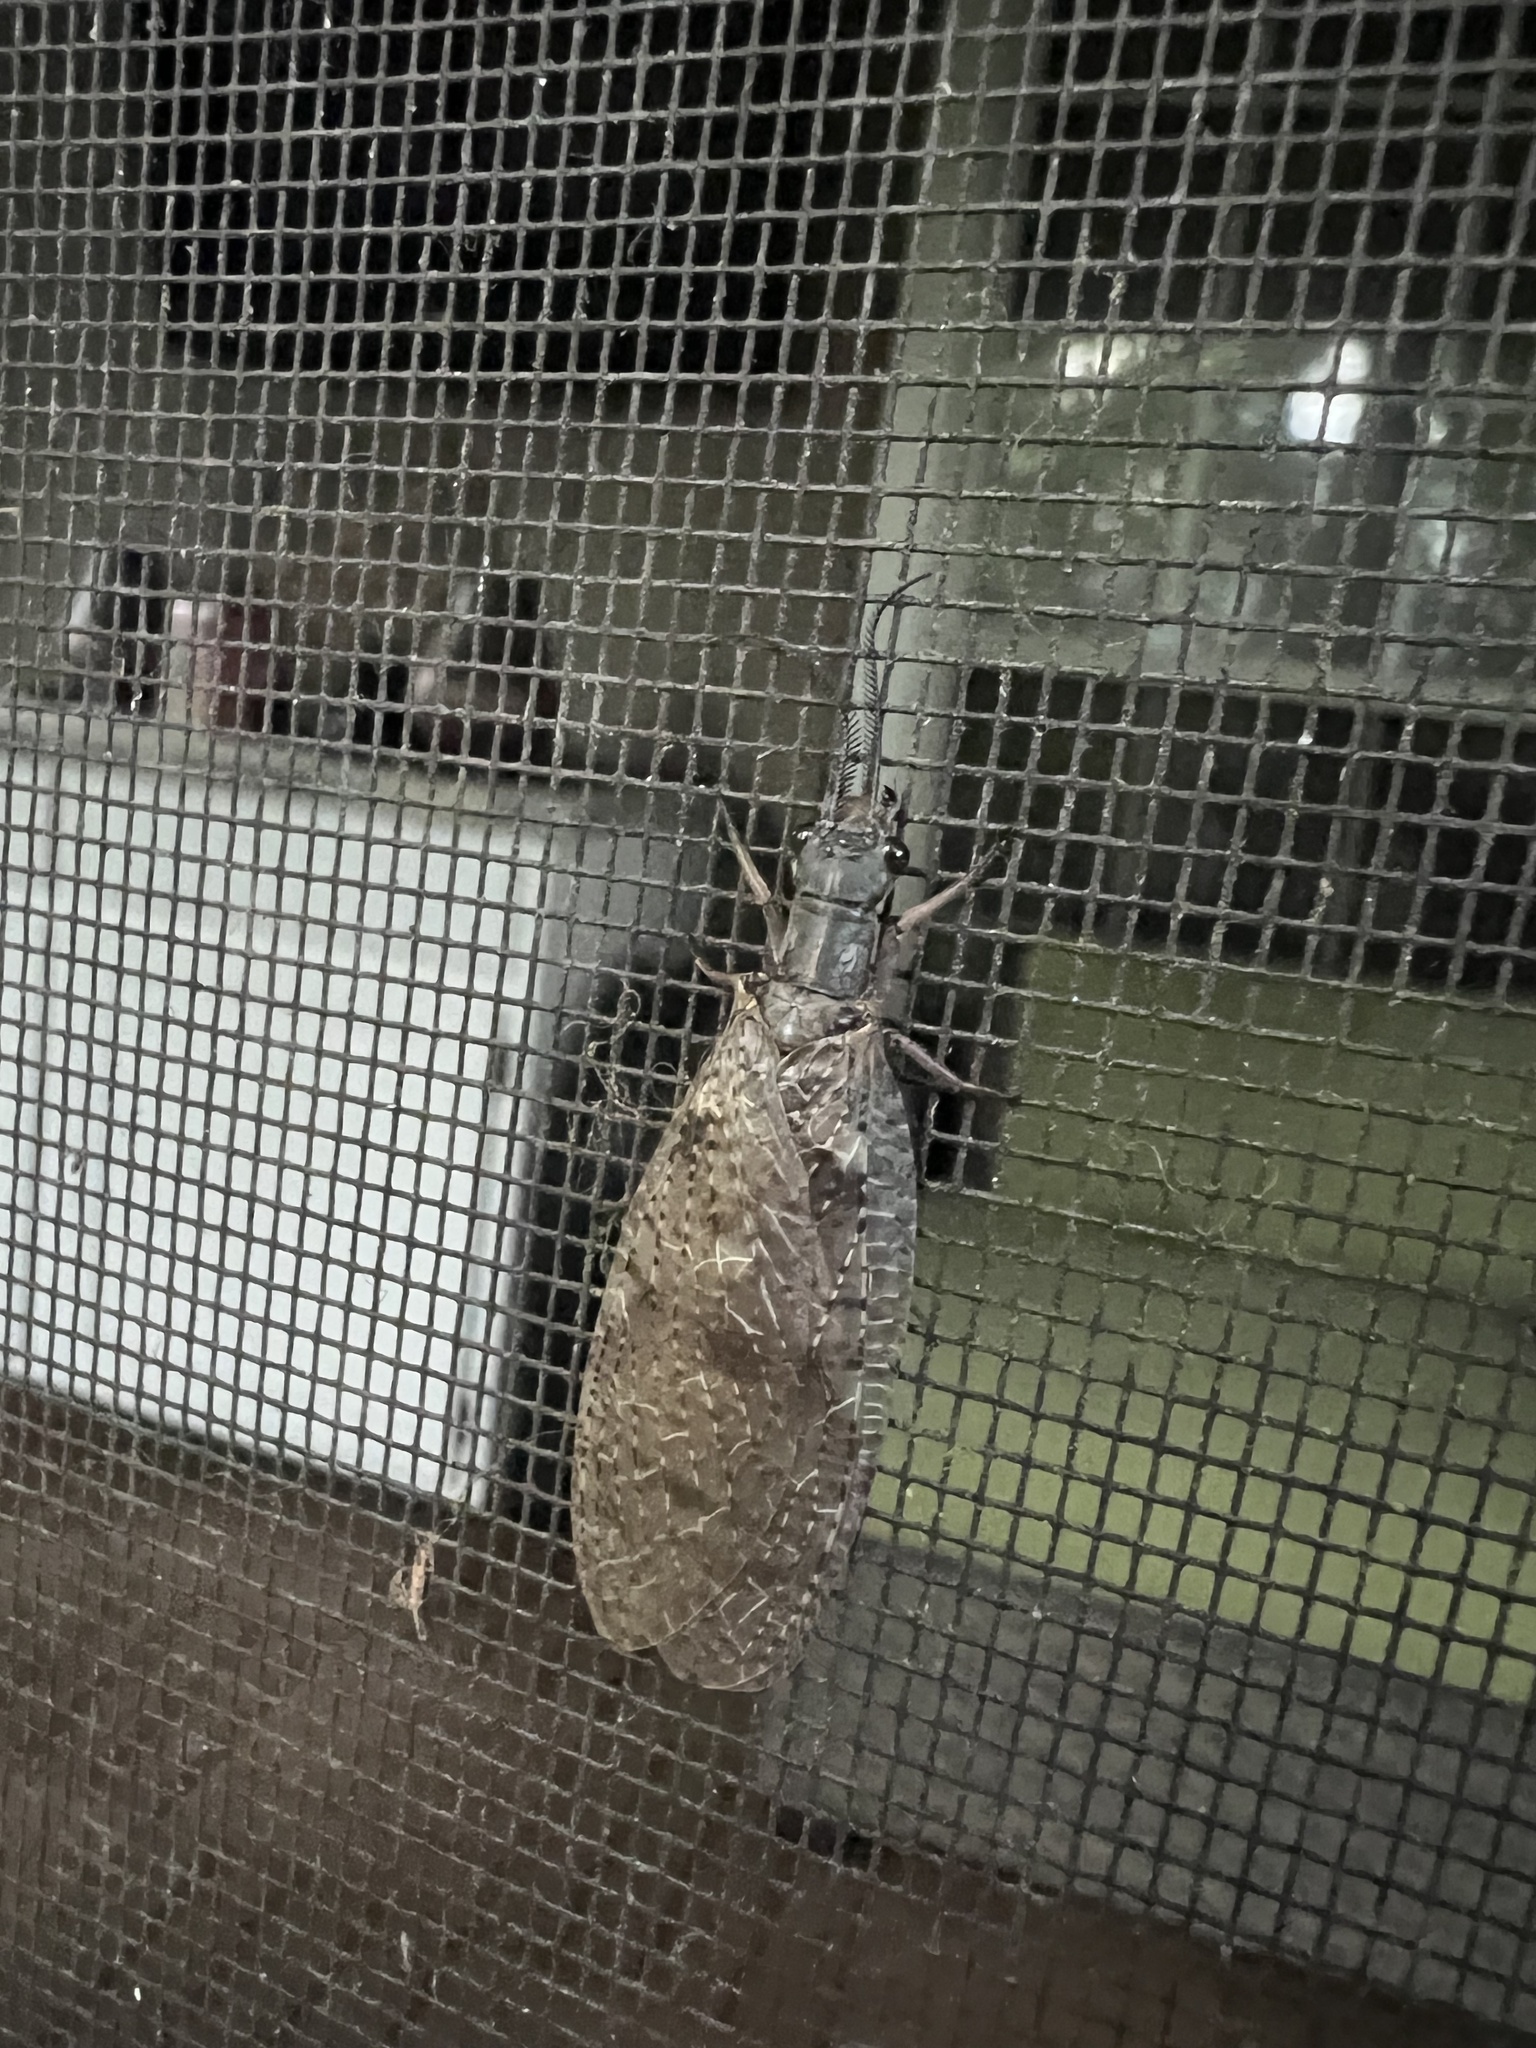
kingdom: Animalia
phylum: Arthropoda
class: Insecta
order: Megaloptera
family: Corydalidae
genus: Chauliodes
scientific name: Chauliodes pectinicornis
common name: Summer fishfly
